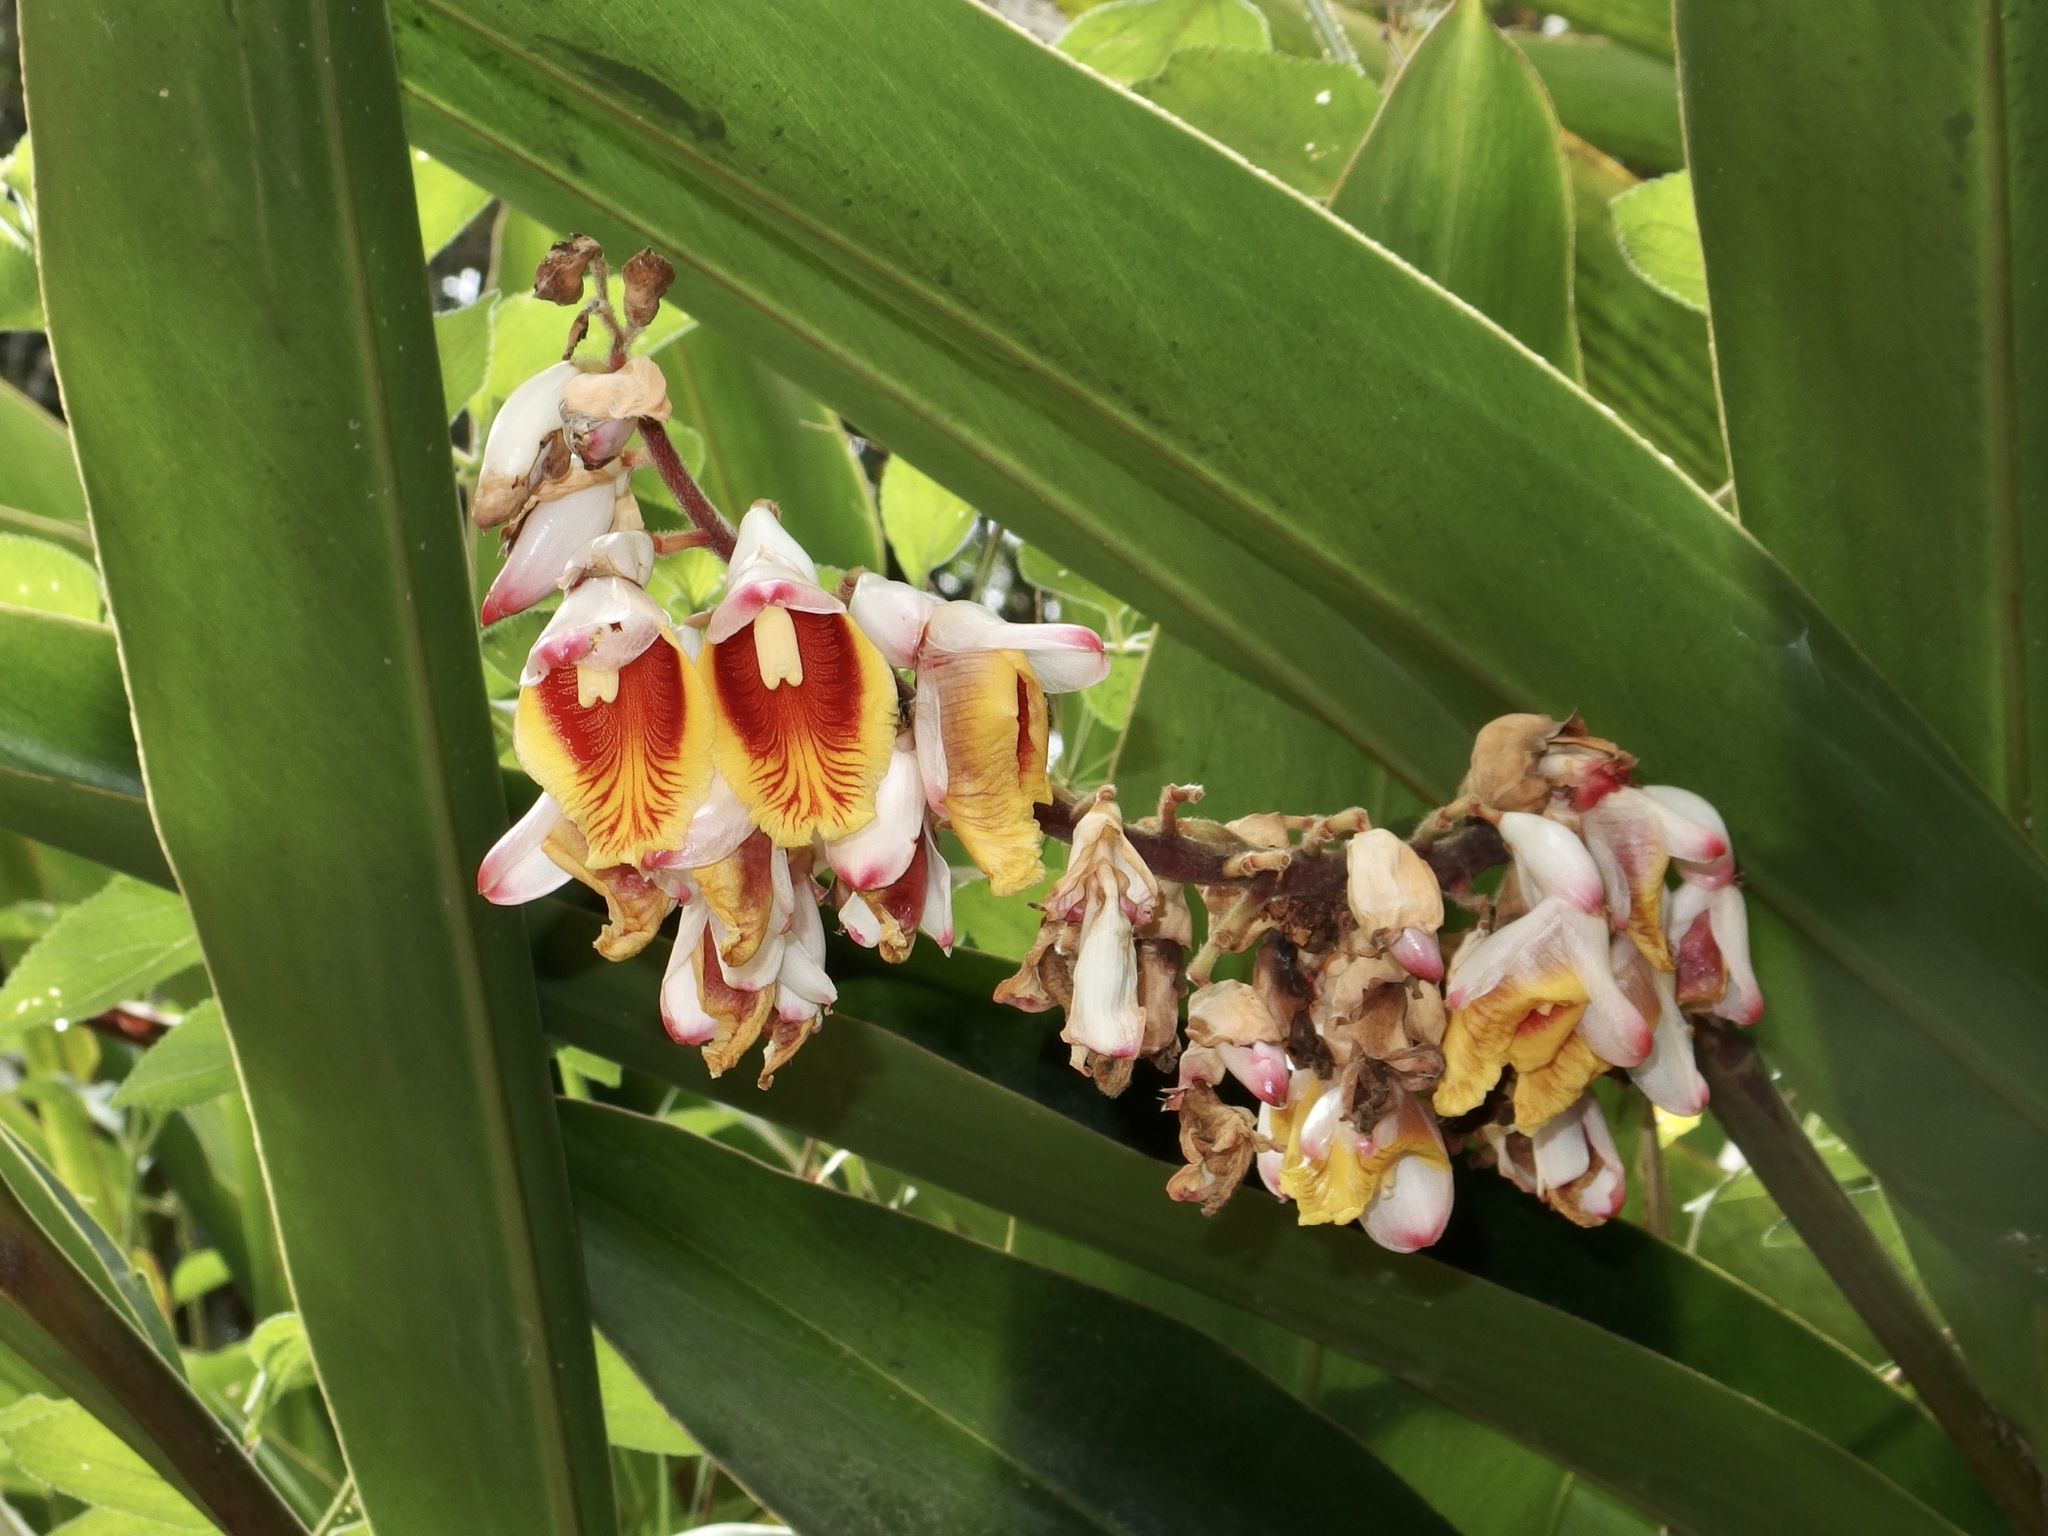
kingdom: Plantae
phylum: Tracheophyta
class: Liliopsida
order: Zingiberales
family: Zingiberaceae
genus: Alpinia
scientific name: Alpinia zerumbet
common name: Shellplant
